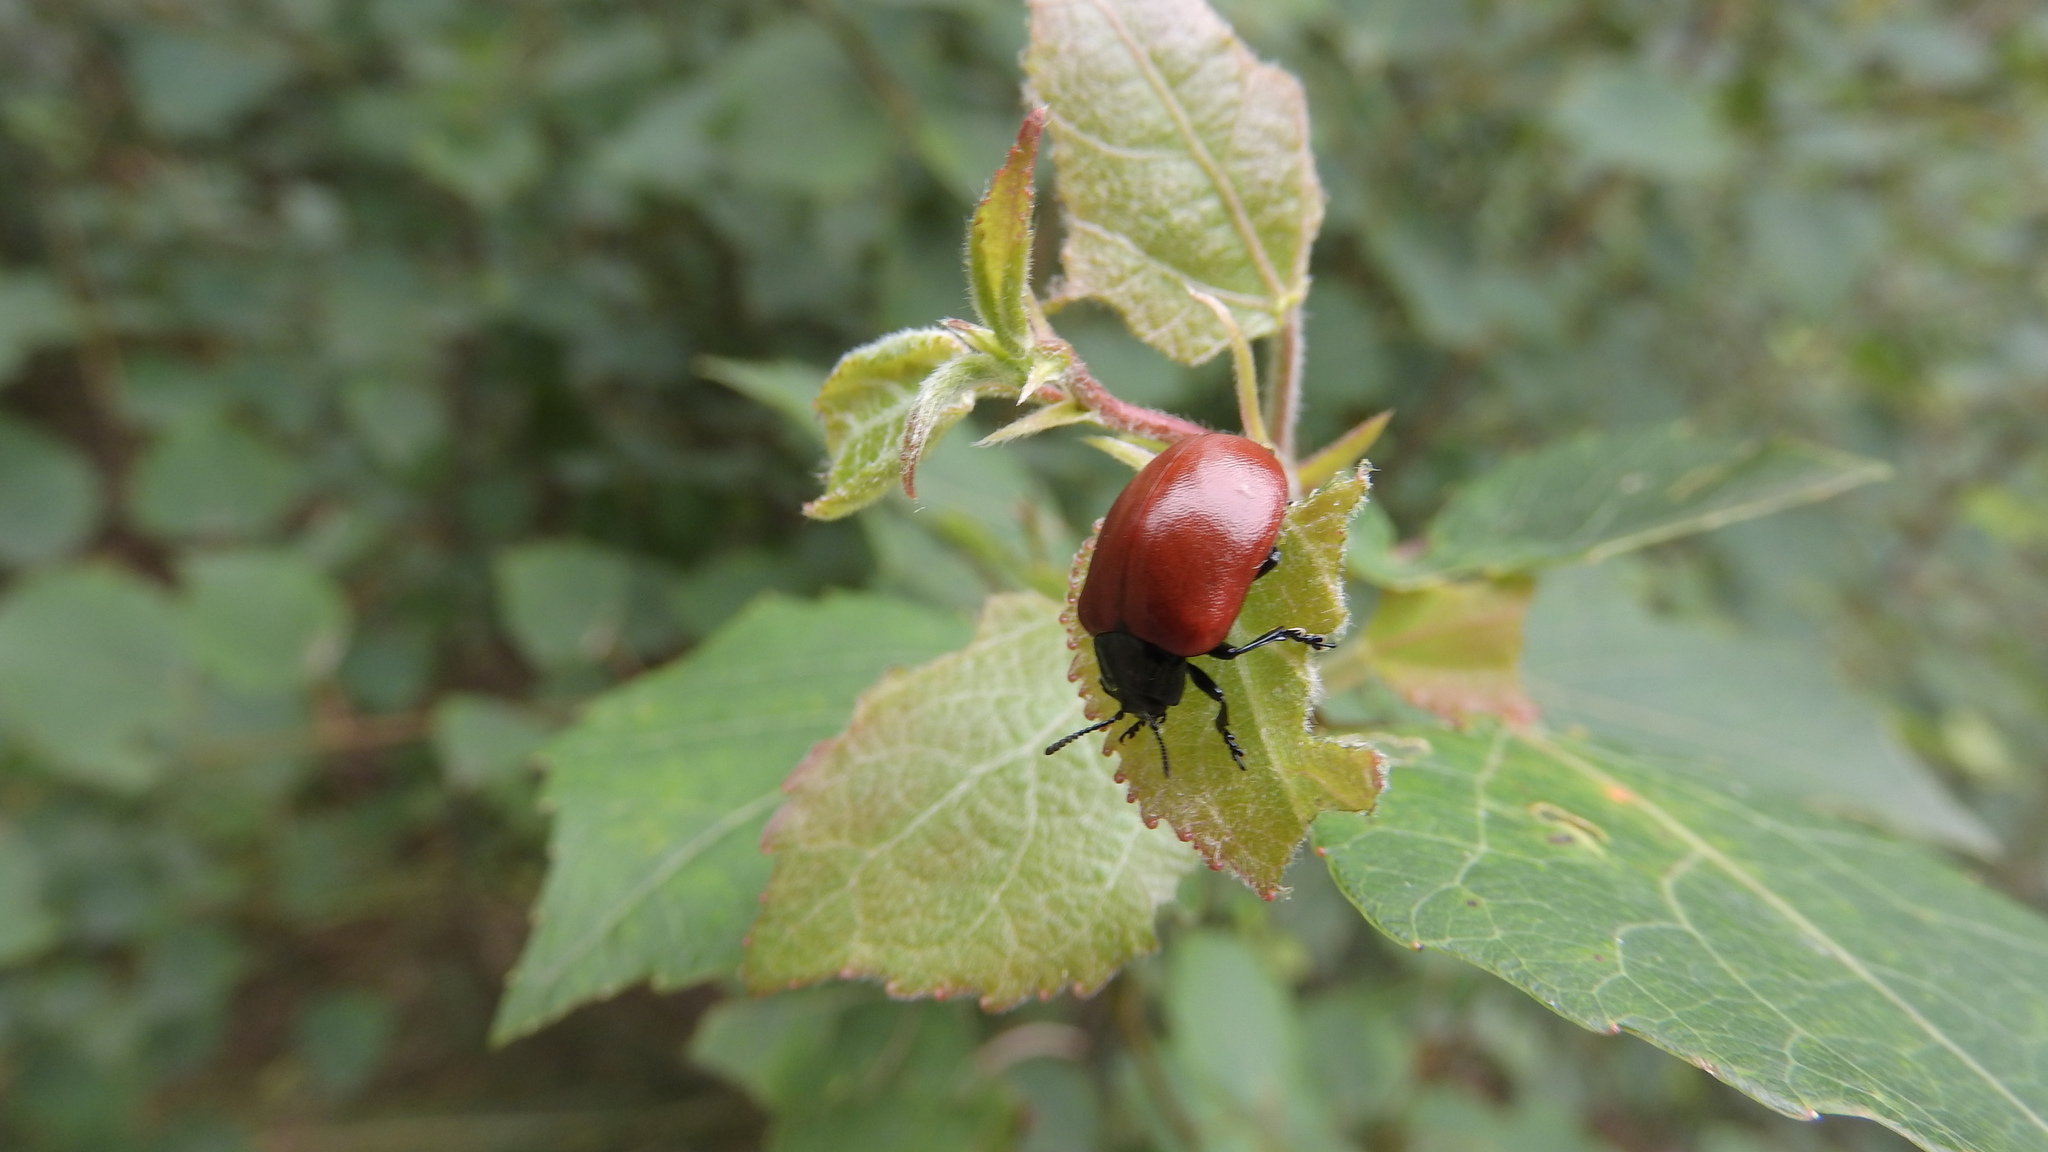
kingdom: Animalia
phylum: Arthropoda
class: Insecta
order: Coleoptera
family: Chrysomelidae
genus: Chrysomela
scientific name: Chrysomela populi
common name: Red poplar leaf beetle
